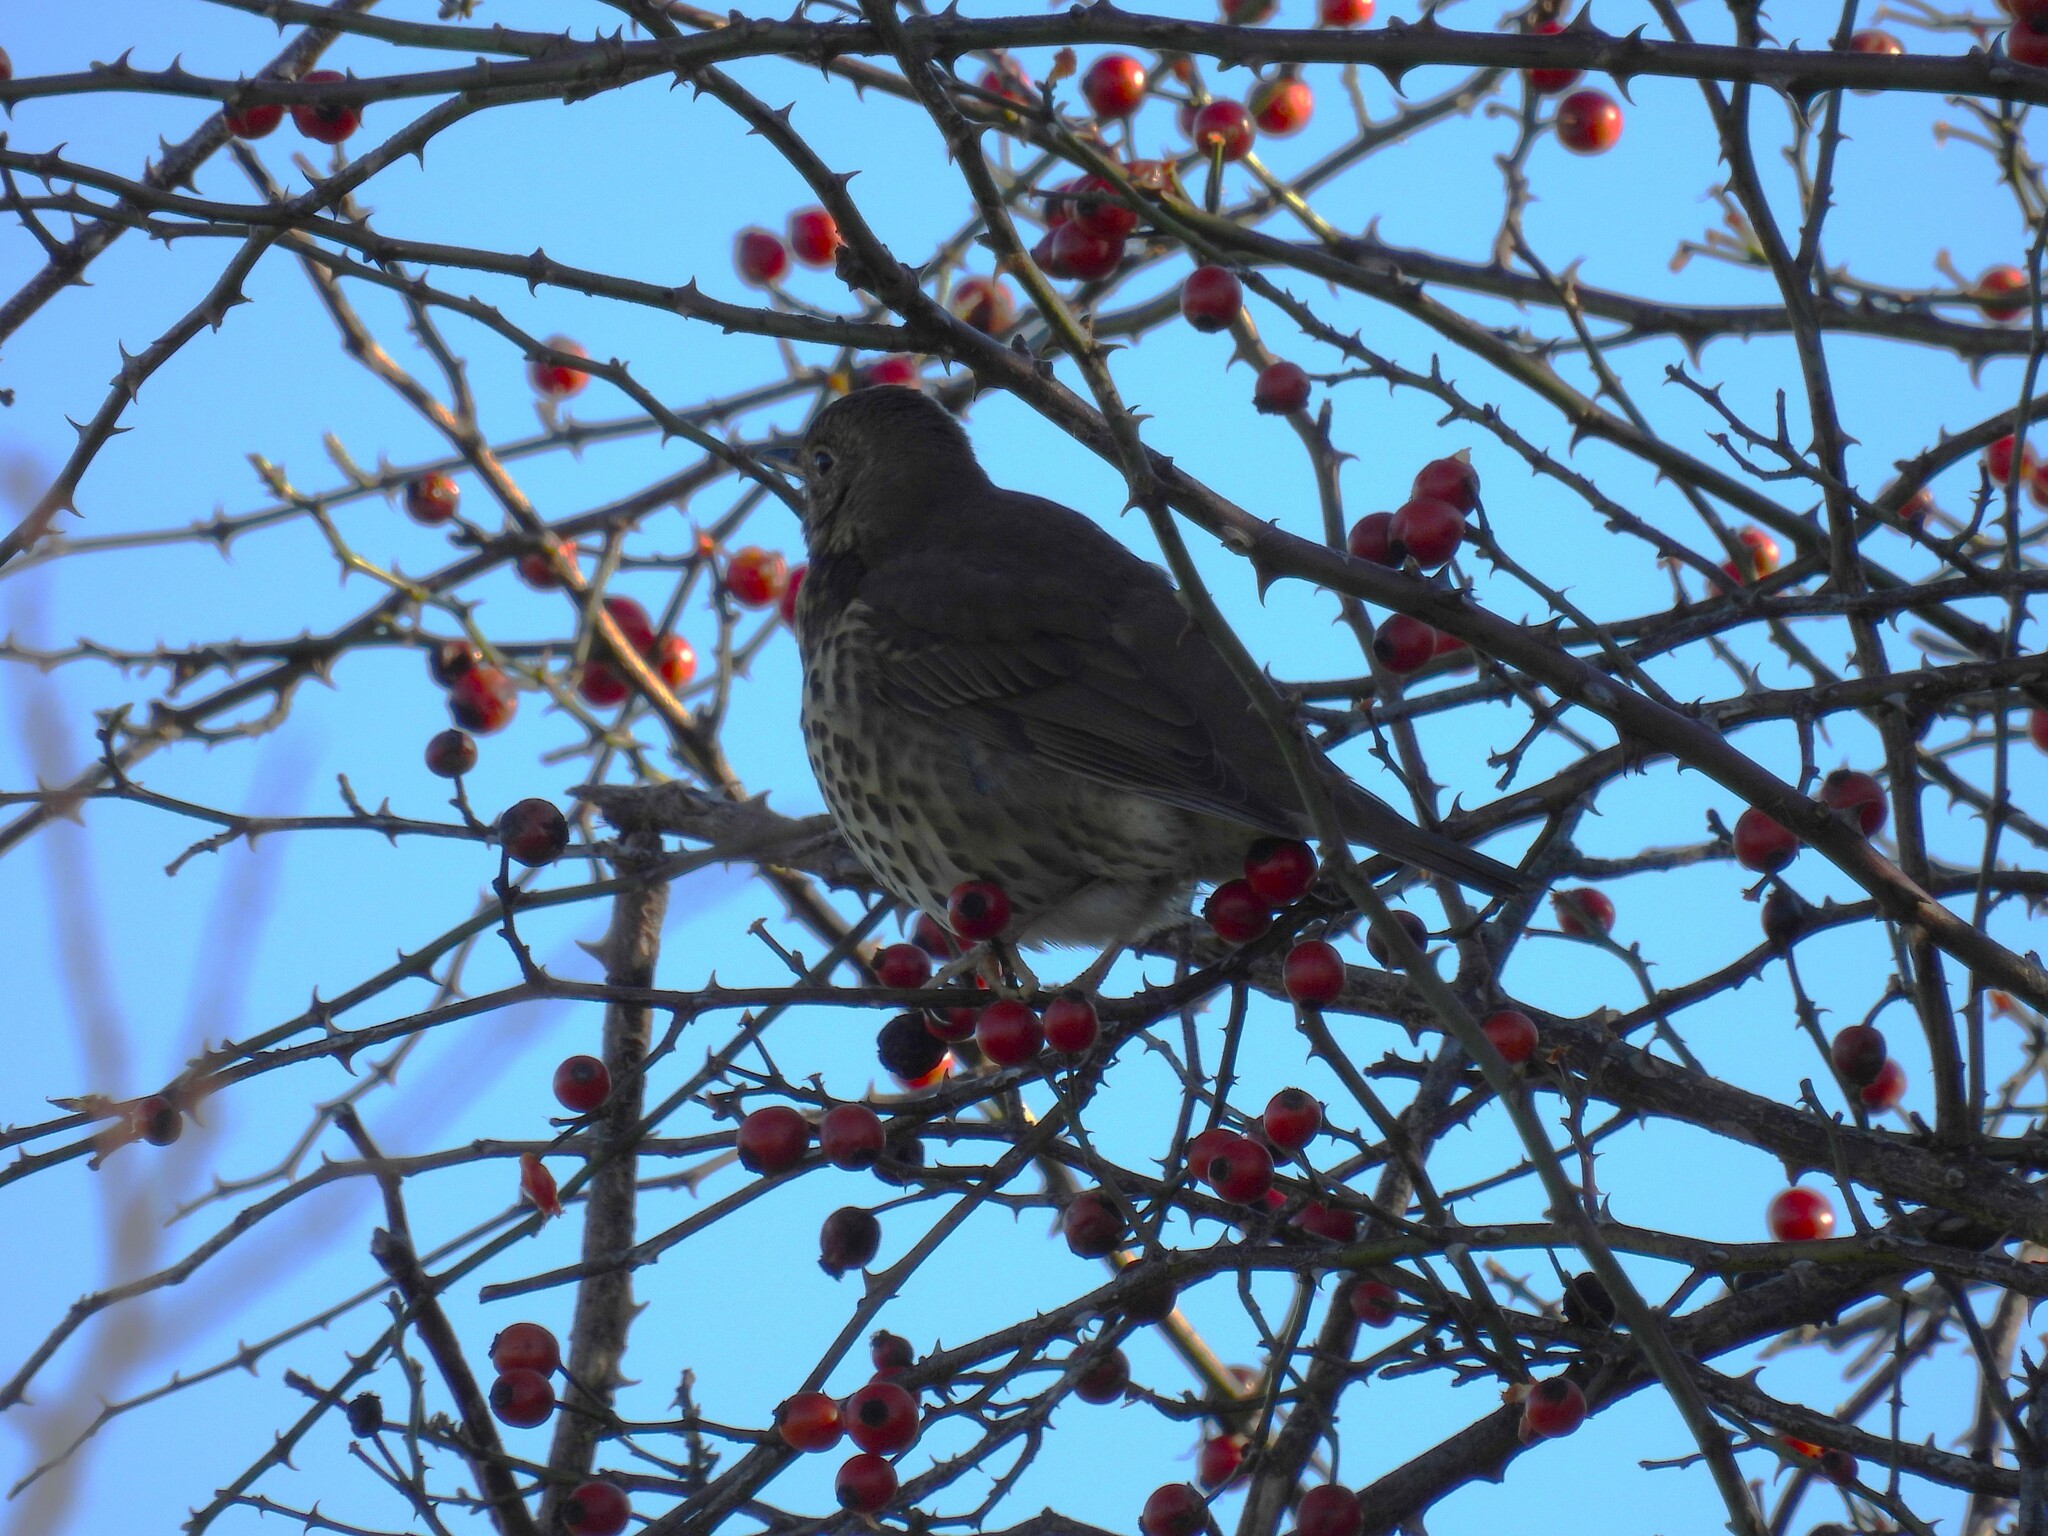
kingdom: Animalia
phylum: Chordata
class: Aves
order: Passeriformes
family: Turdidae
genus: Turdus
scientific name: Turdus philomelos
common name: Song thrush
